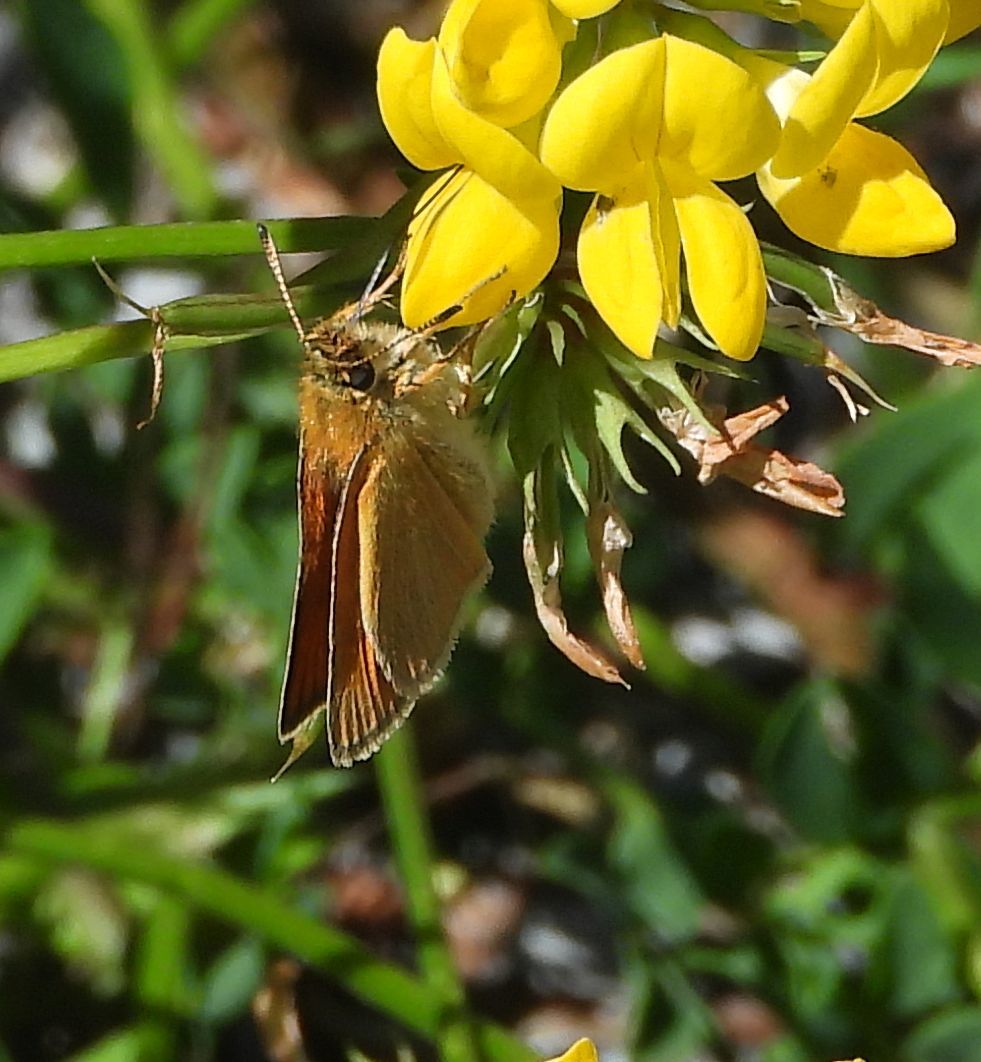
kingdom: Animalia
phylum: Arthropoda
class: Insecta
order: Lepidoptera
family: Hesperiidae
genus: Thymelicus
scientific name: Thymelicus lineola
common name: Essex skipper
